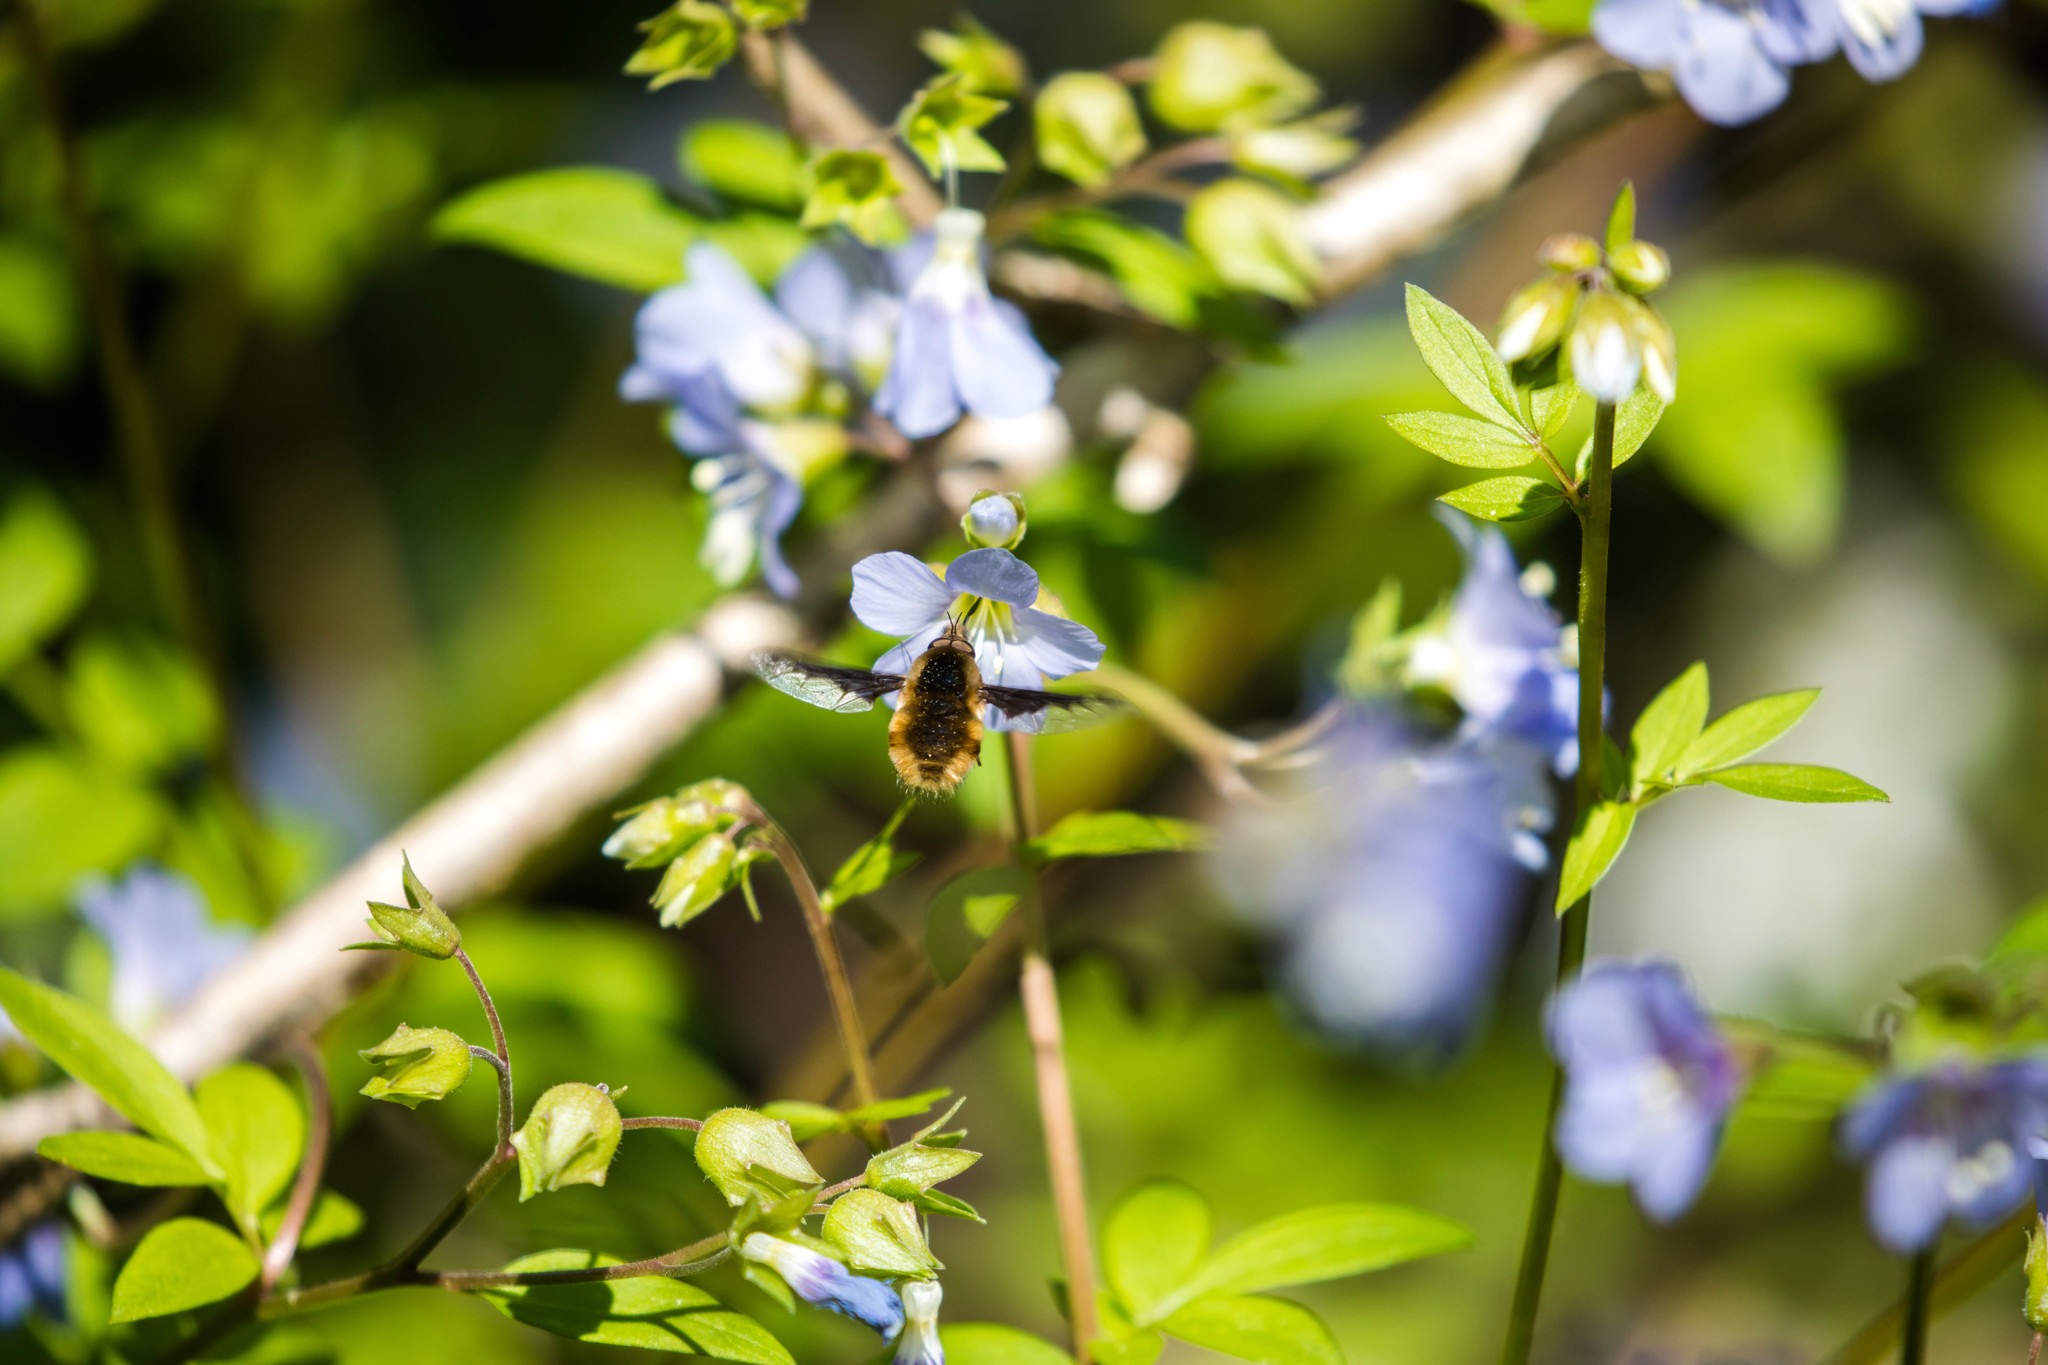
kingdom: Animalia
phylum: Arthropoda
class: Insecta
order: Diptera
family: Bombyliidae
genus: Bombylius
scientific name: Bombylius major
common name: Bee fly
